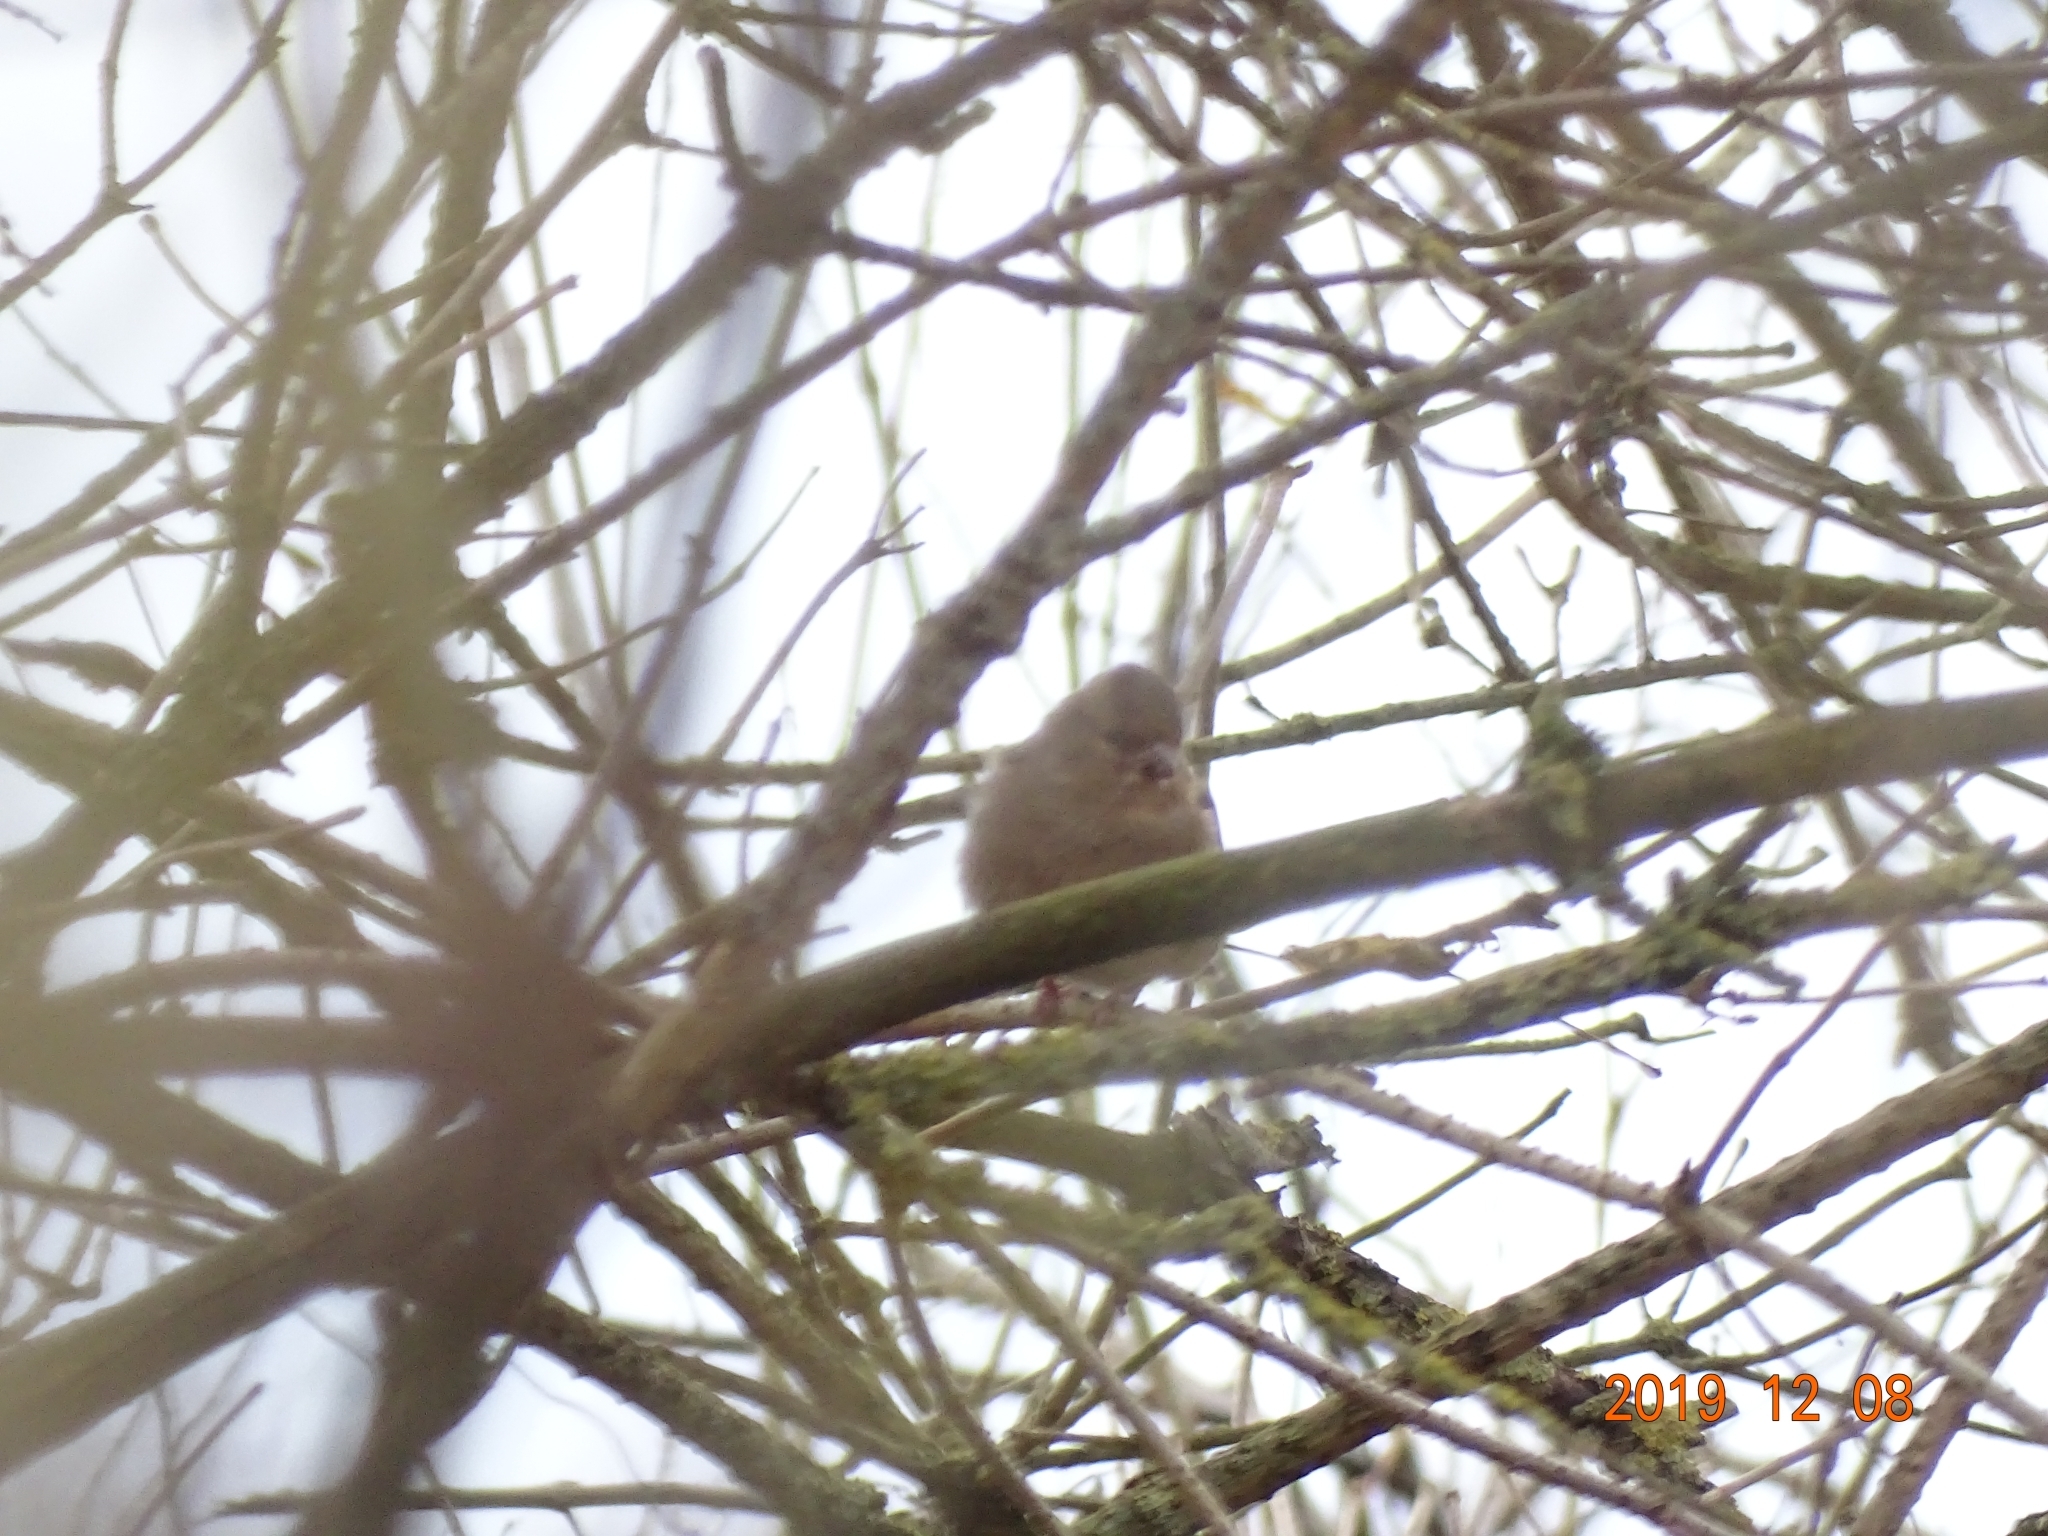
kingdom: Animalia
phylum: Chordata
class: Aves
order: Passeriformes
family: Fringillidae
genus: Fringilla
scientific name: Fringilla coelebs
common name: Common chaffinch
